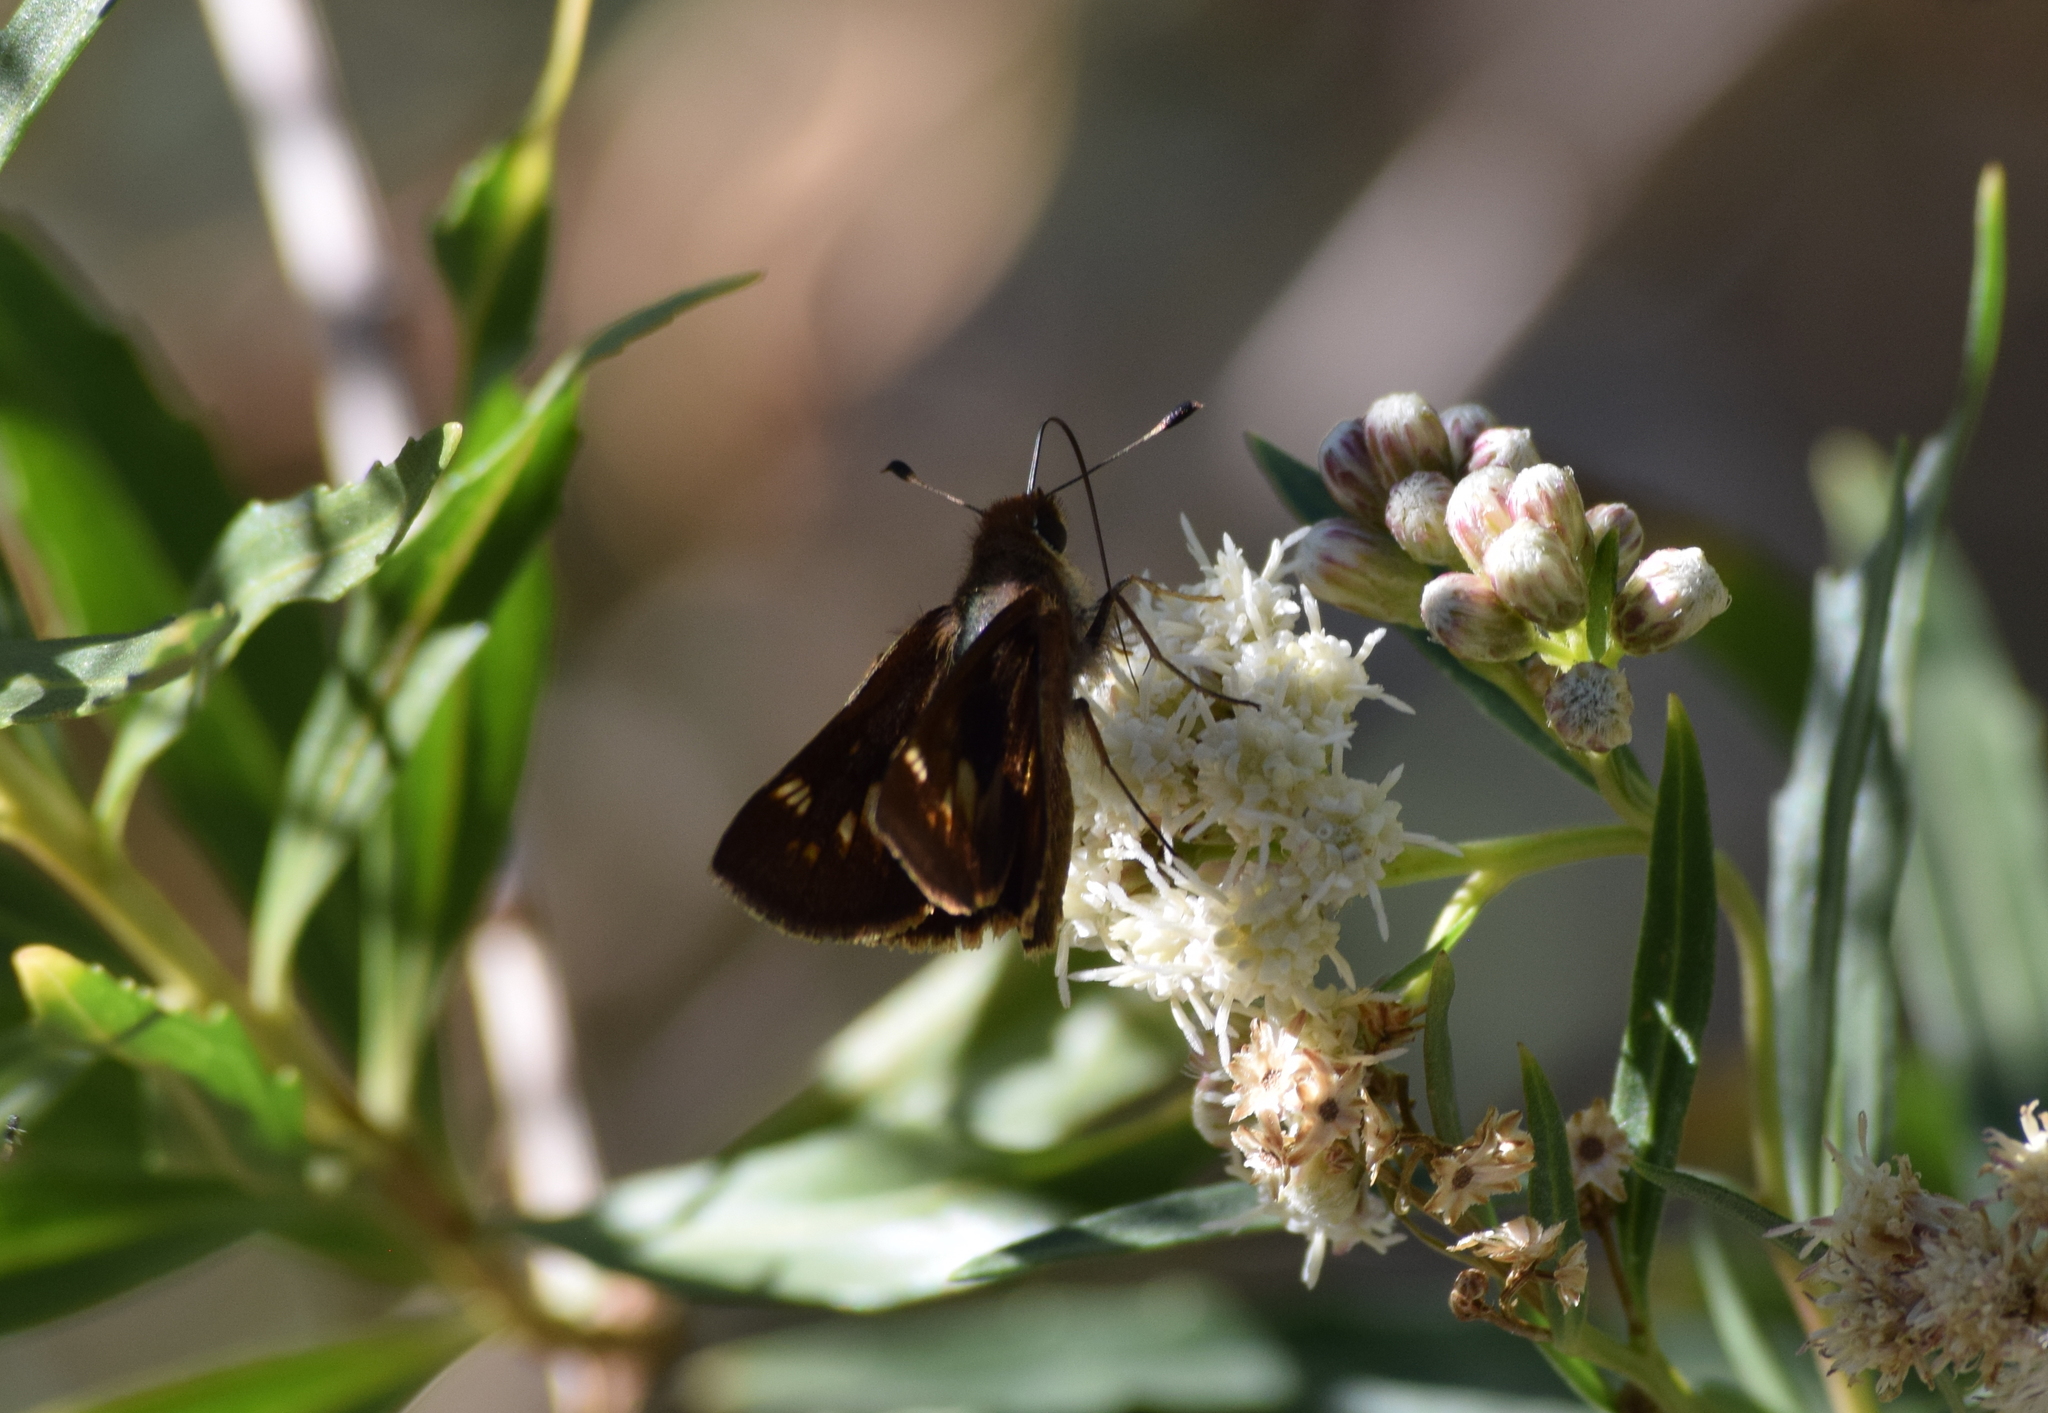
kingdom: Animalia
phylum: Arthropoda
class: Insecta
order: Lepidoptera
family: Hesperiidae
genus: Lon
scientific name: Lon melane
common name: Umber skipper
